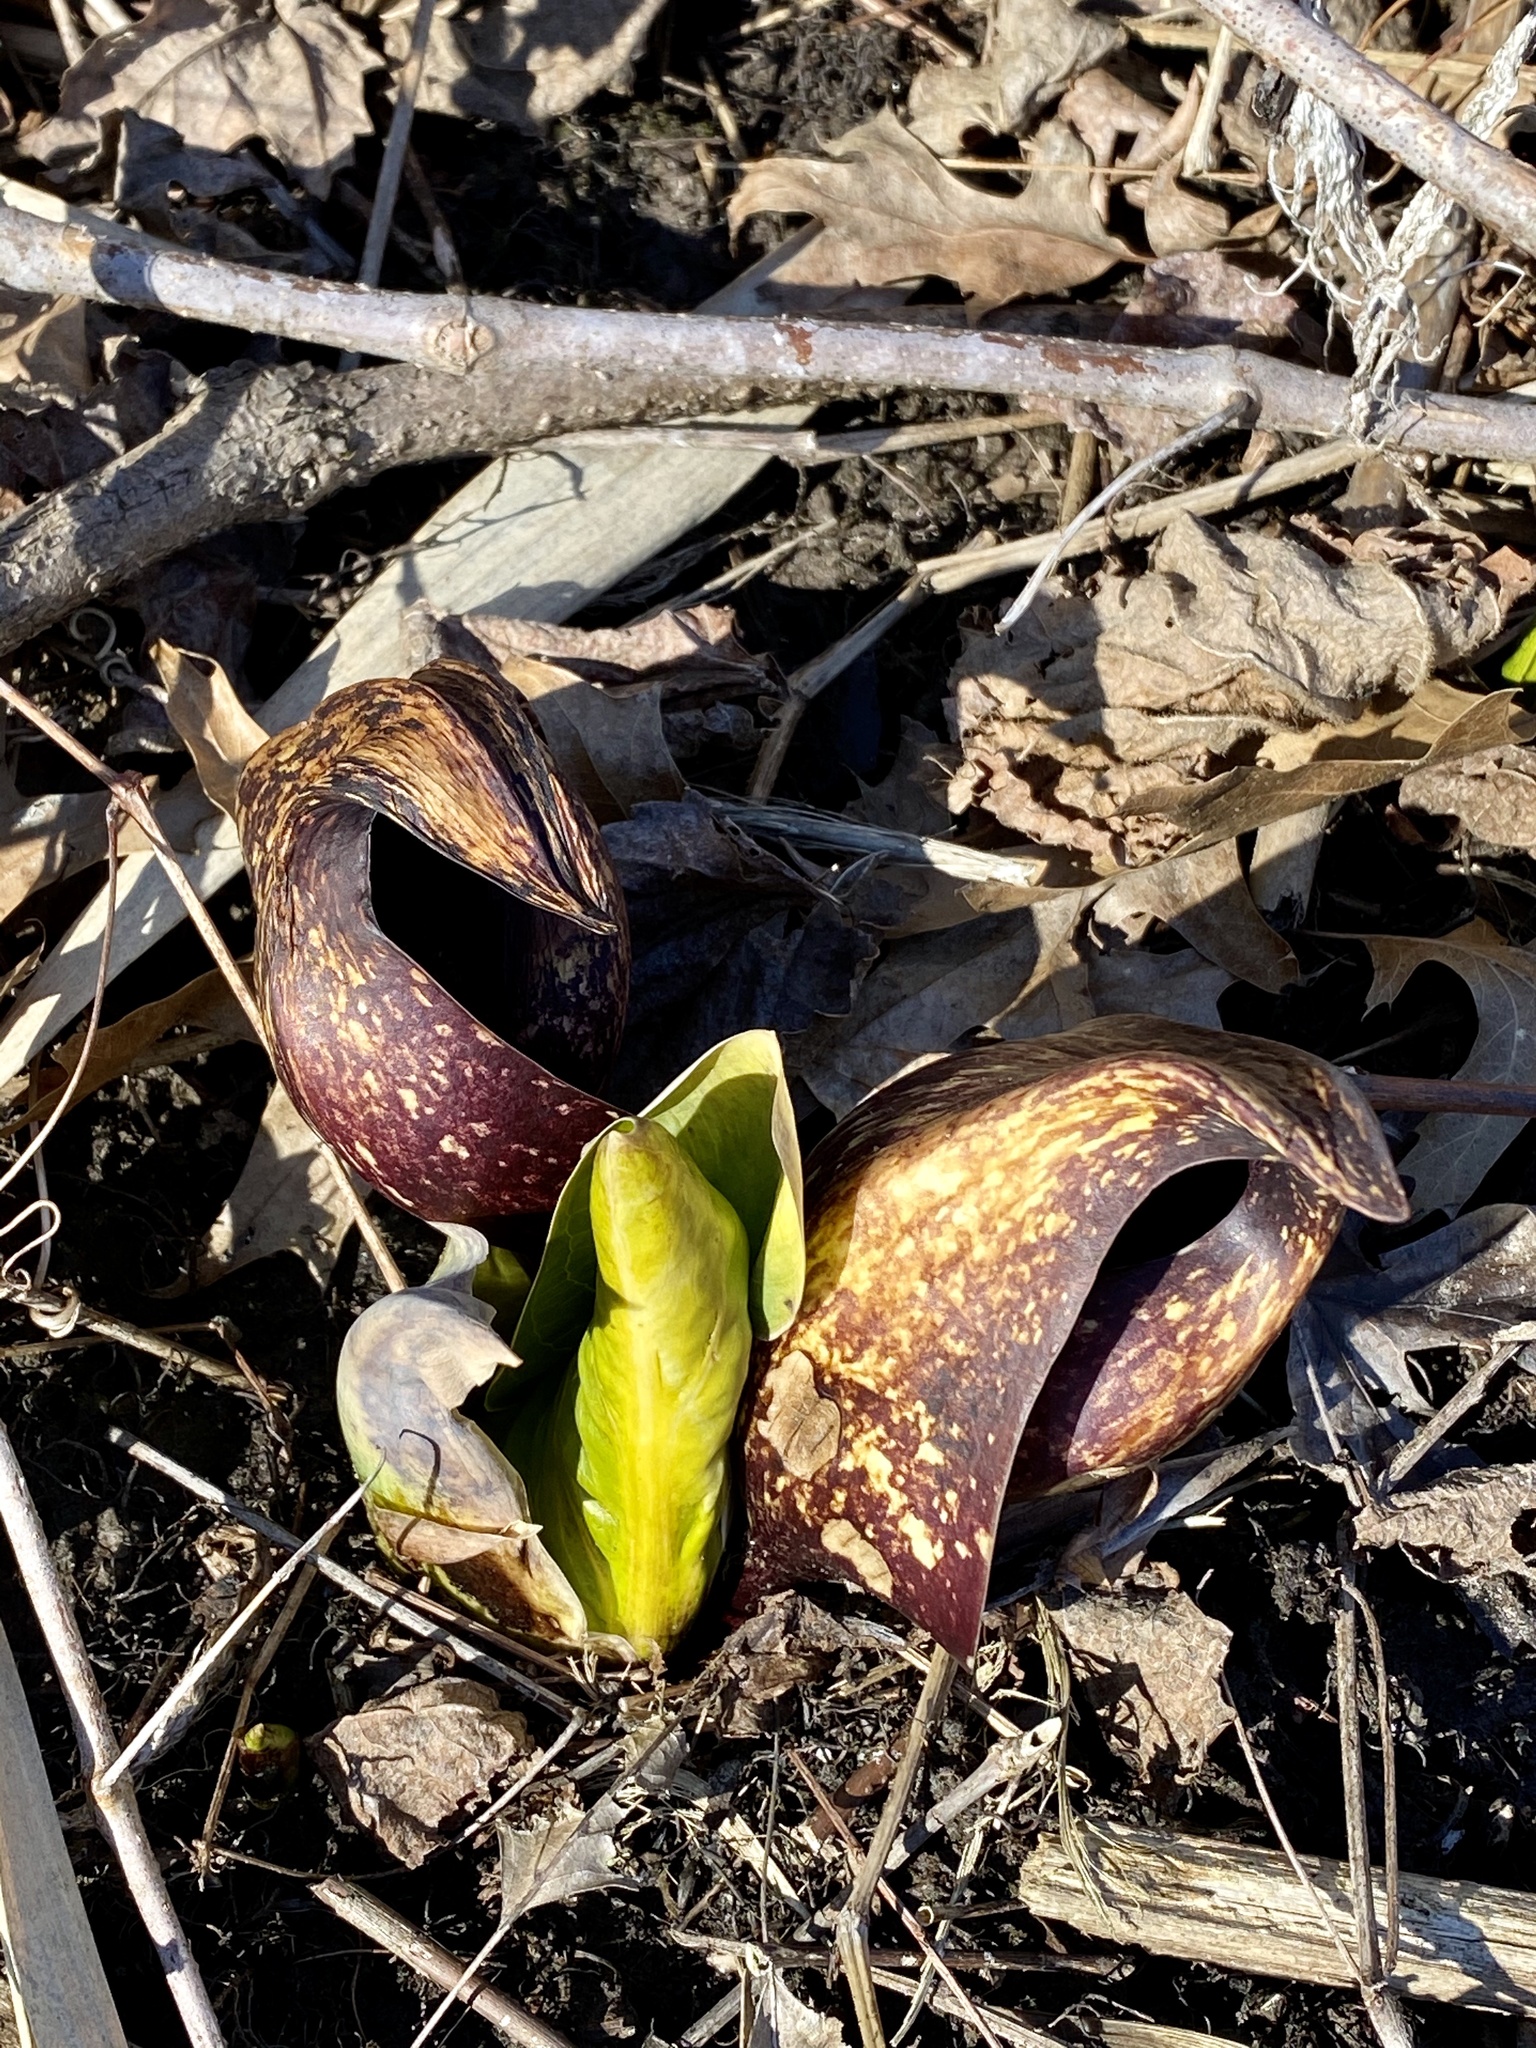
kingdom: Plantae
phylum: Tracheophyta
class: Liliopsida
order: Alismatales
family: Araceae
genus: Symplocarpus
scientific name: Symplocarpus foetidus
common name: Eastern skunk cabbage
